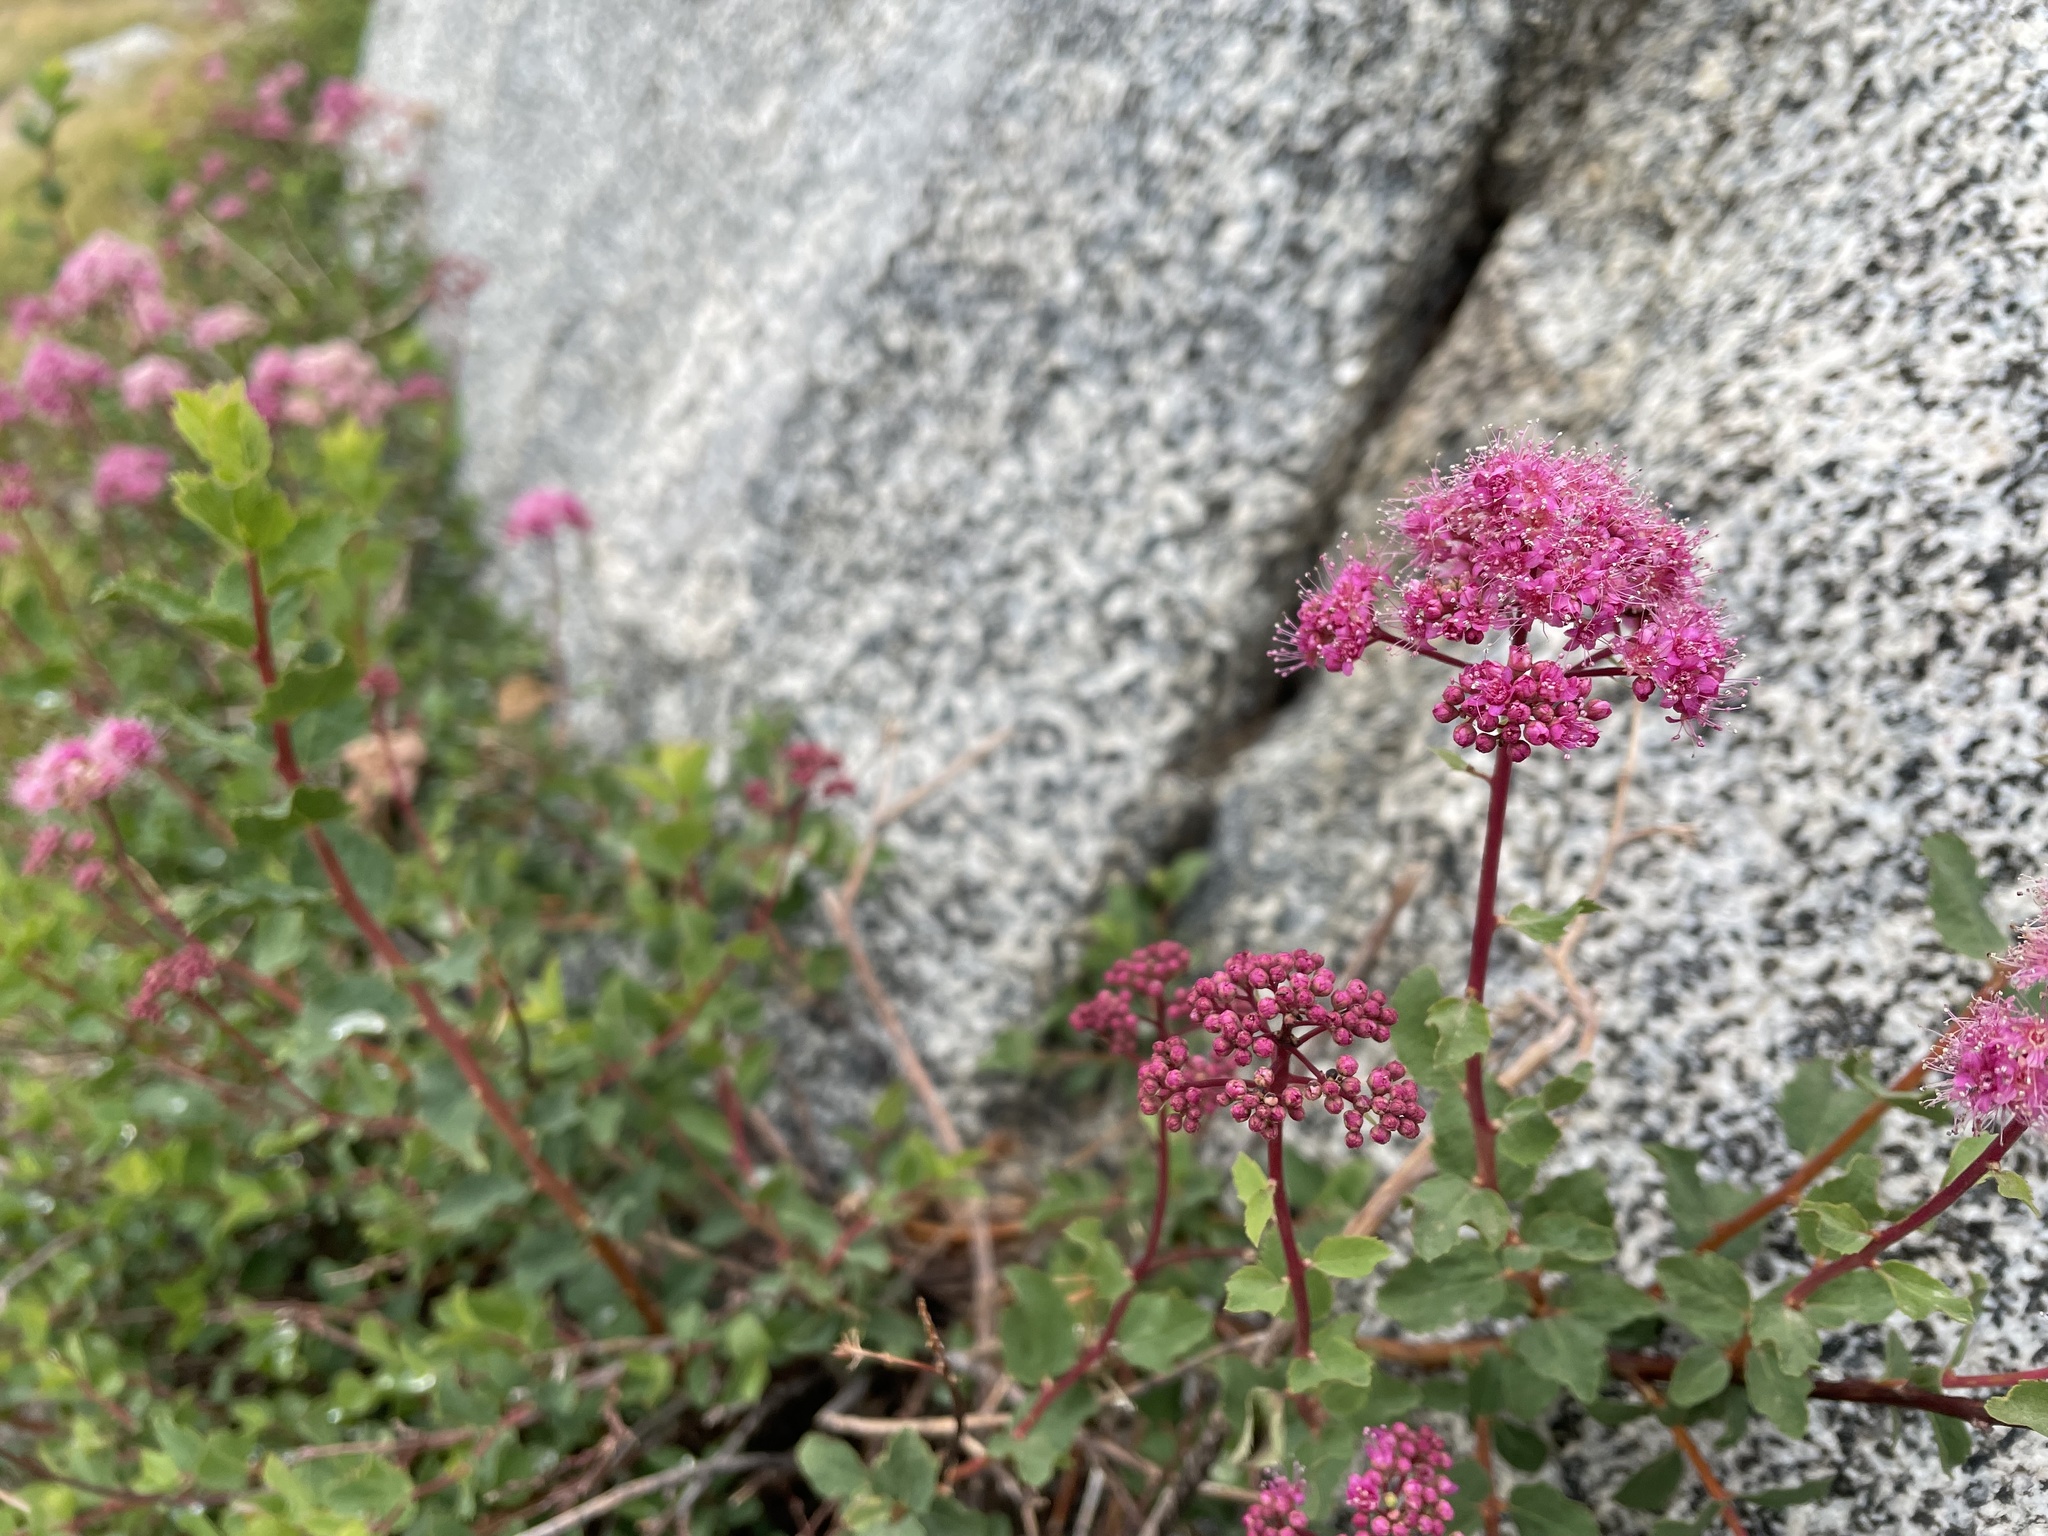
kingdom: Plantae
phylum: Tracheophyta
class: Magnoliopsida
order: Rosales
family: Rosaceae
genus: Spiraea
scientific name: Spiraea splendens
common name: Subalpine meadowsweet
